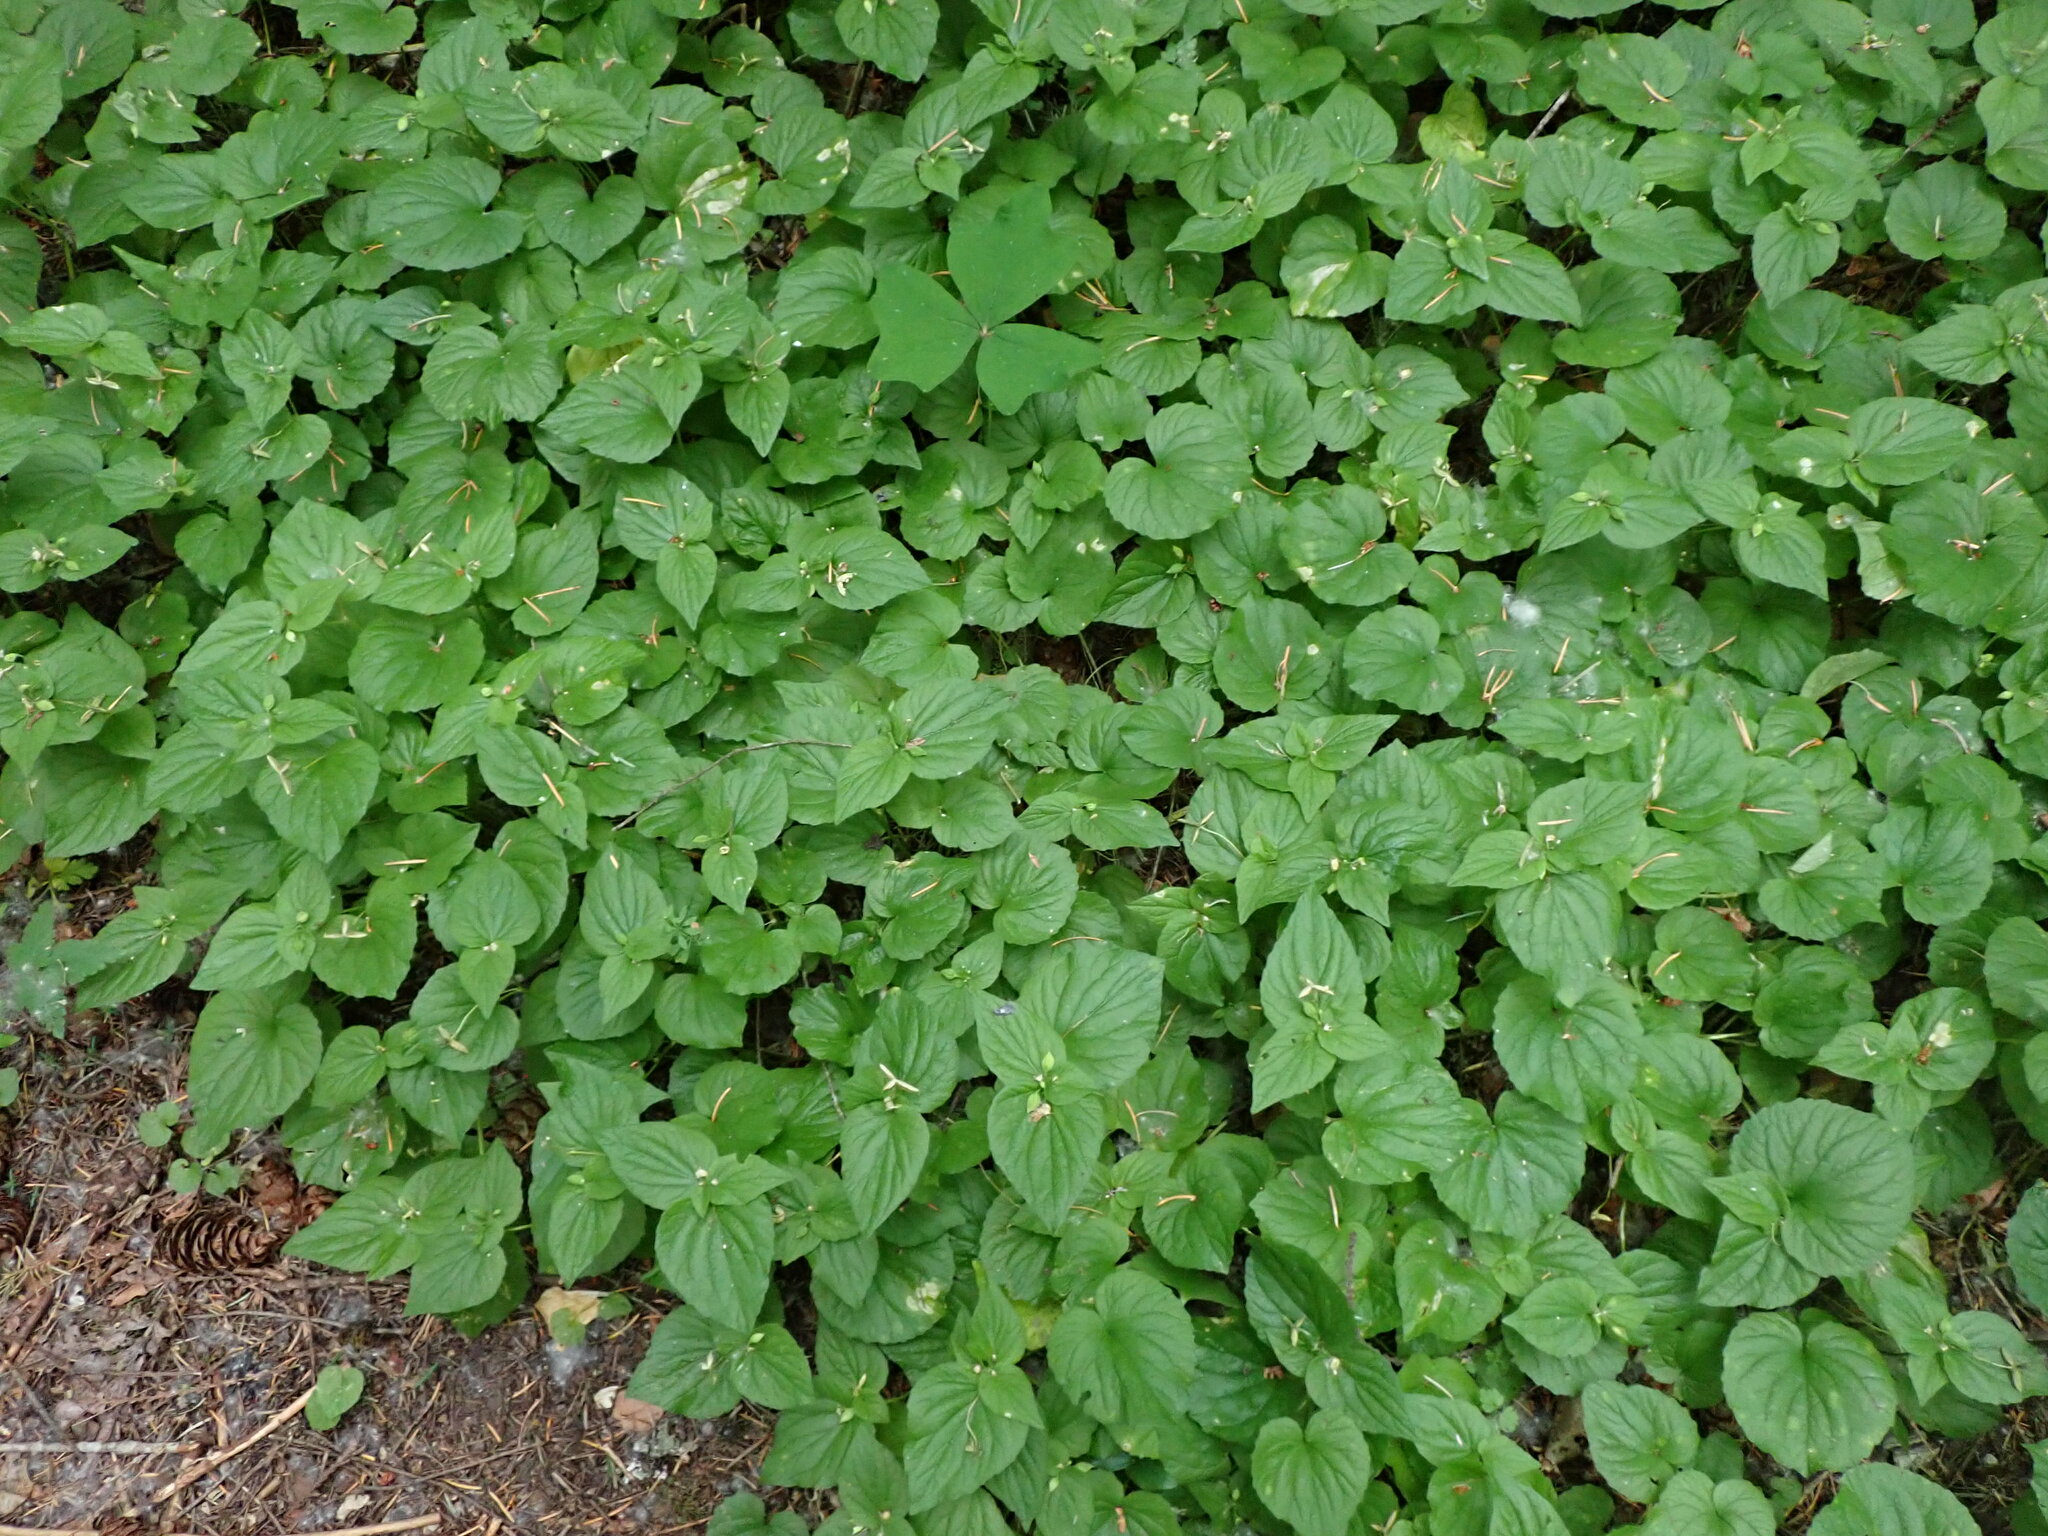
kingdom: Plantae
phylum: Tracheophyta
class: Magnoliopsida
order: Malpighiales
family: Violaceae
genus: Viola
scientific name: Viola glabella
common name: Stream violet
